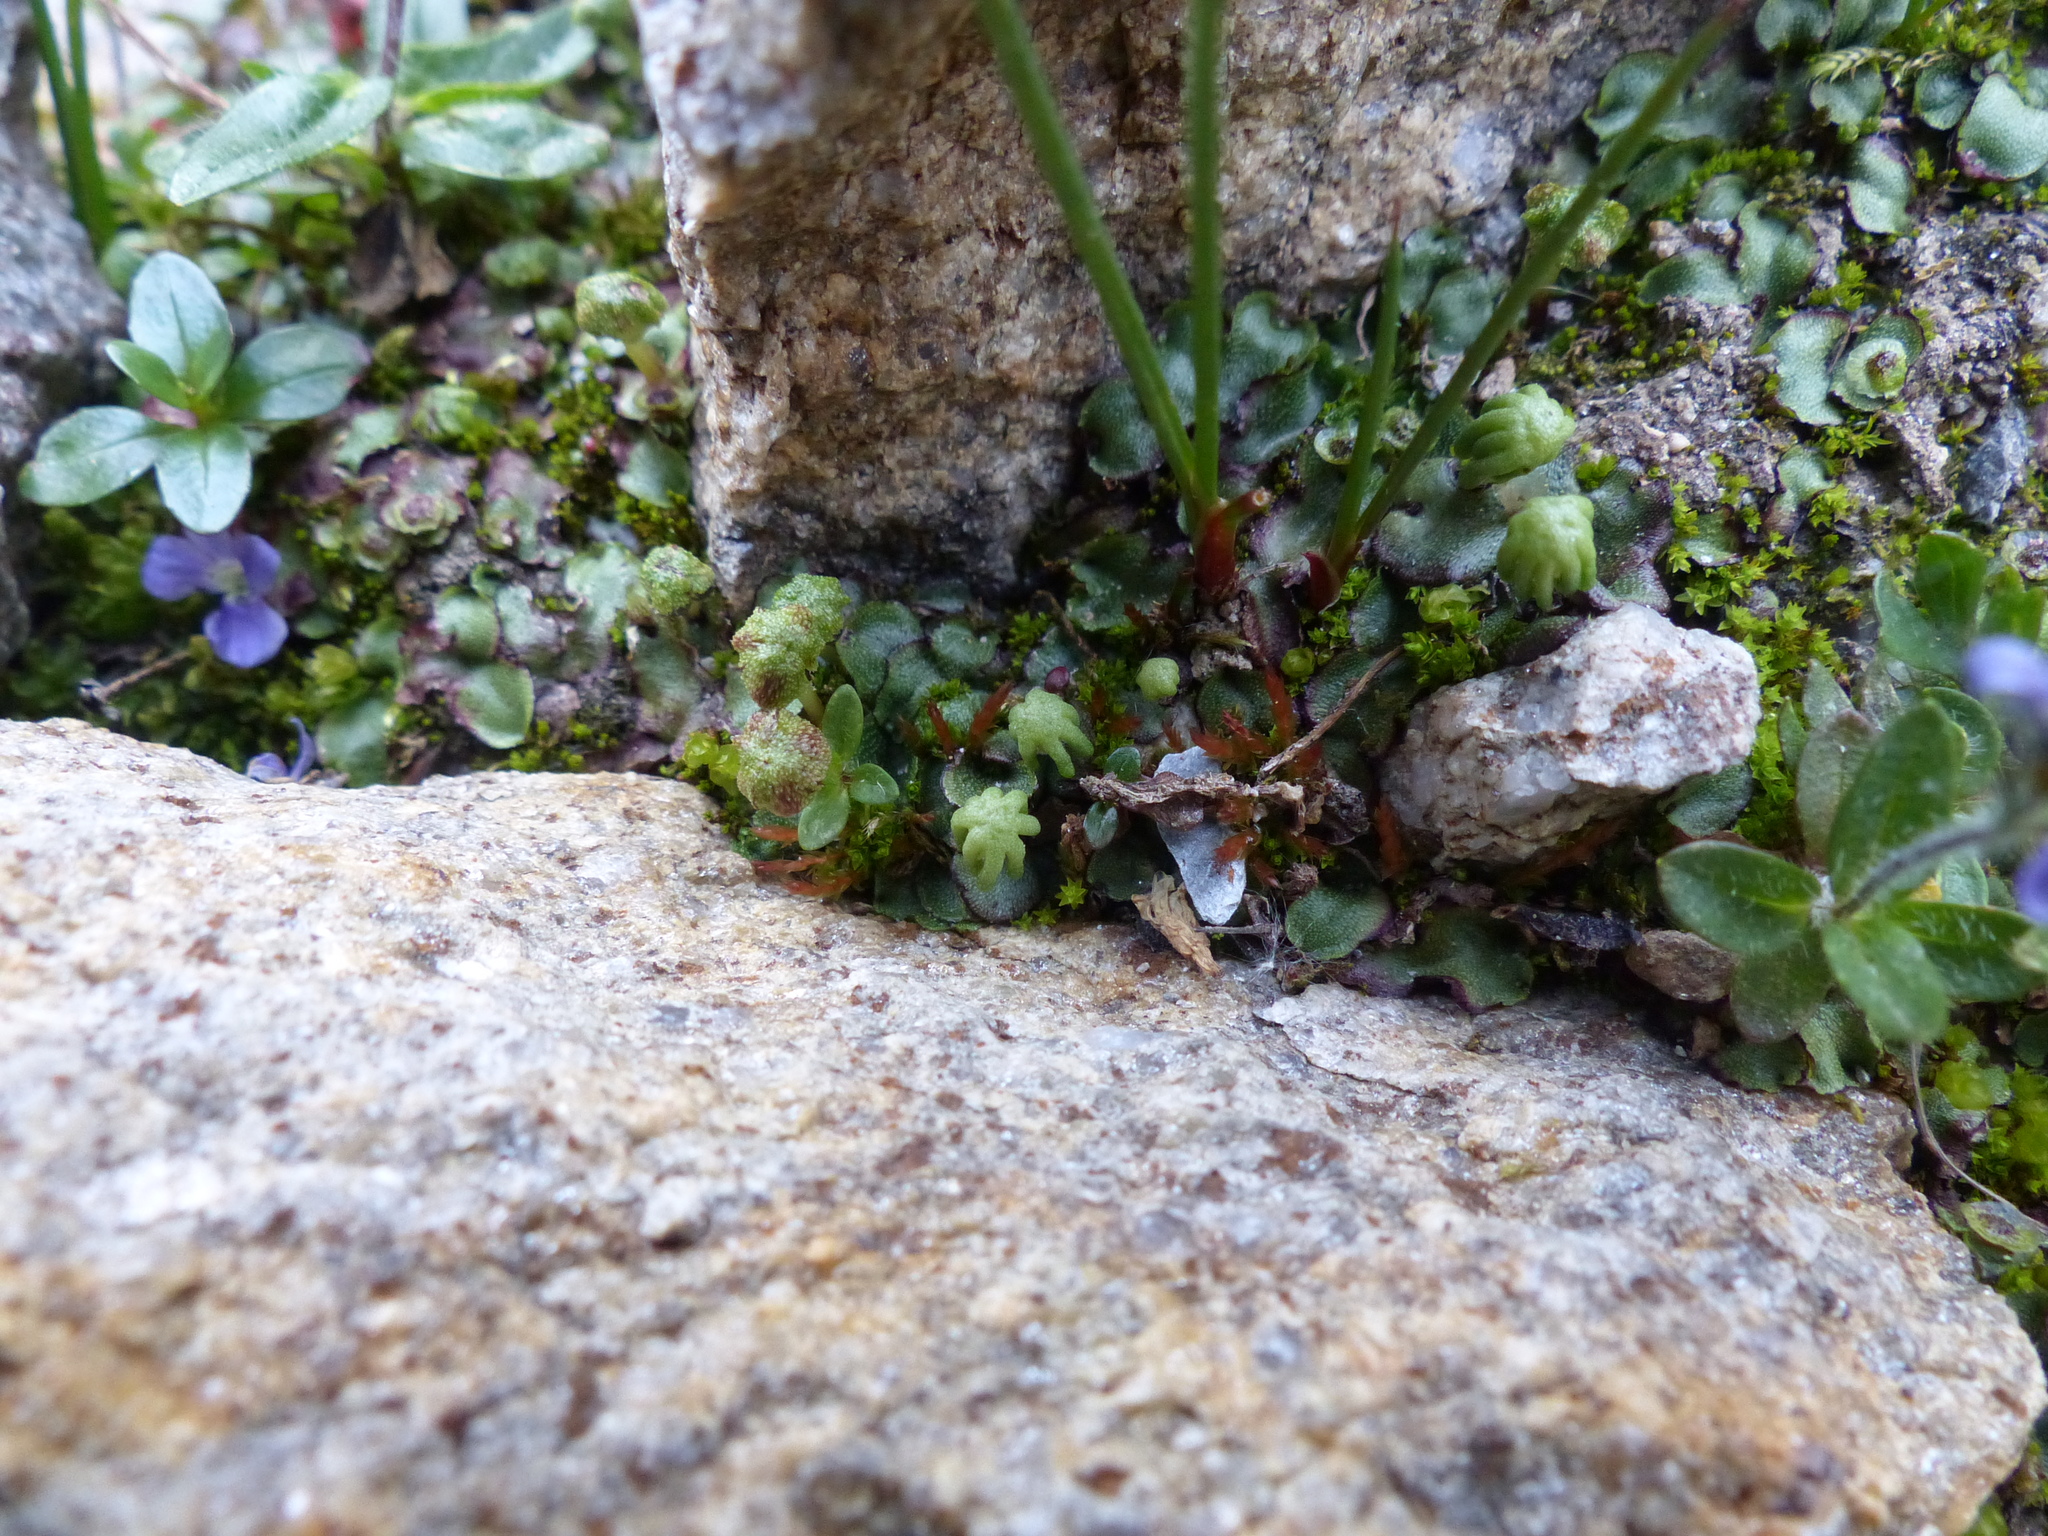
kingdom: Plantae
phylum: Marchantiophyta
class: Marchantiopsida
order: Marchantiales
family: Marchantiaceae
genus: Marchantia
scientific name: Marchantia polymorpha
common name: Common liverwort
